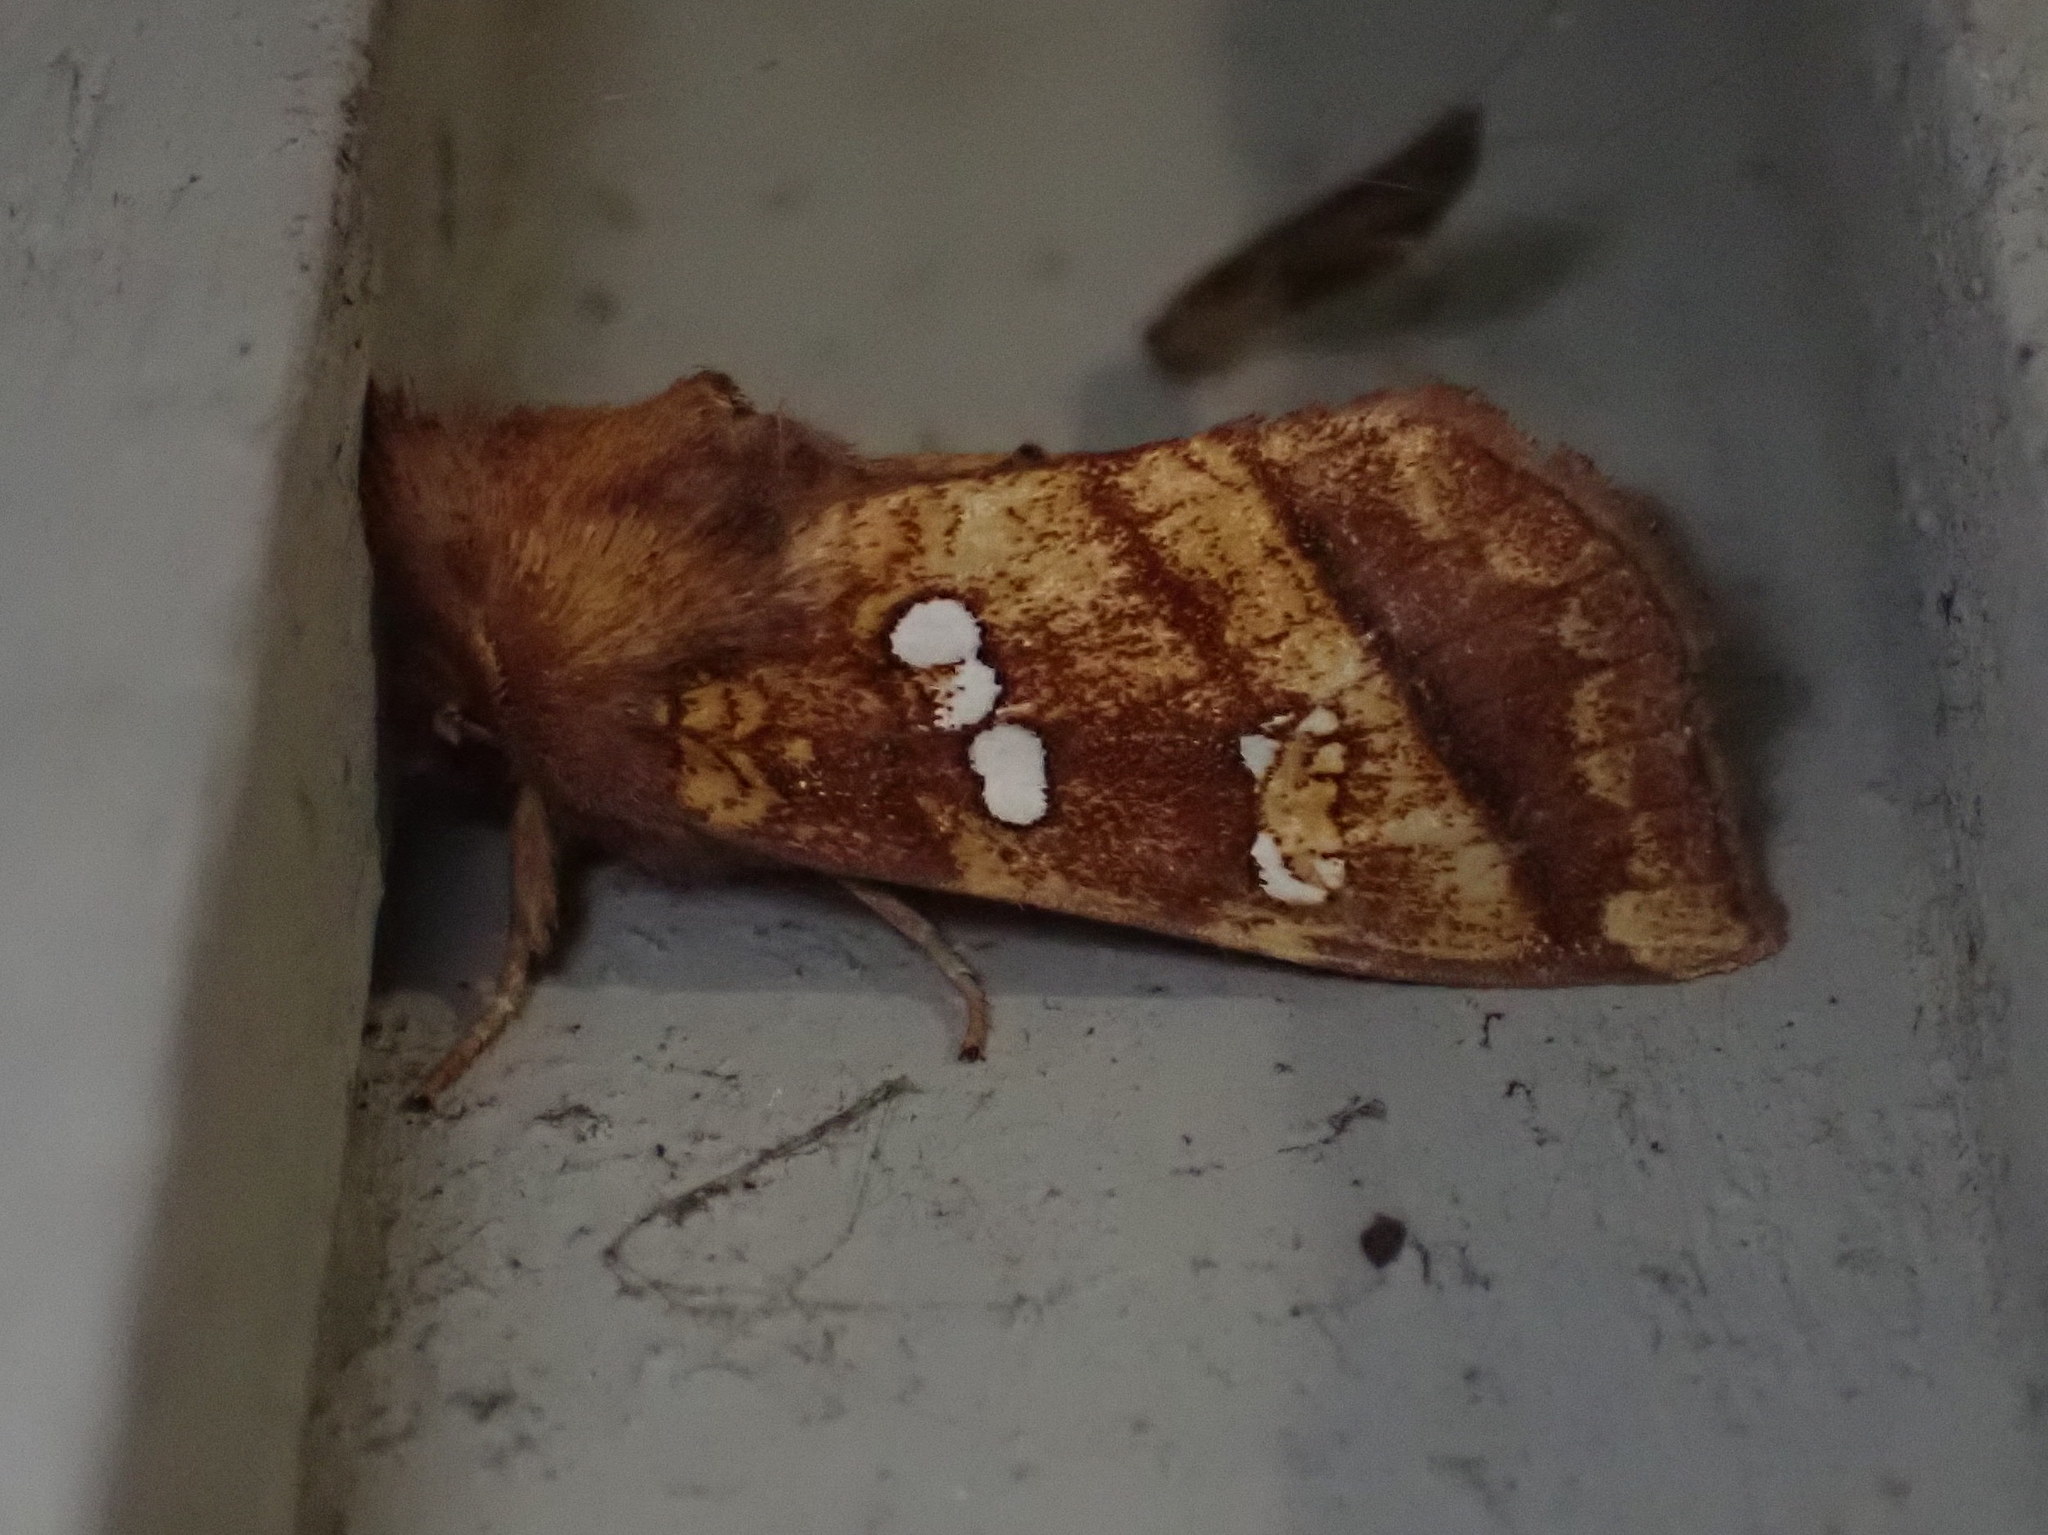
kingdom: Animalia
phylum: Arthropoda
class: Insecta
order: Lepidoptera
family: Noctuidae
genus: Papaipema
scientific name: Papaipema pterisii
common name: Bracken borer moth
